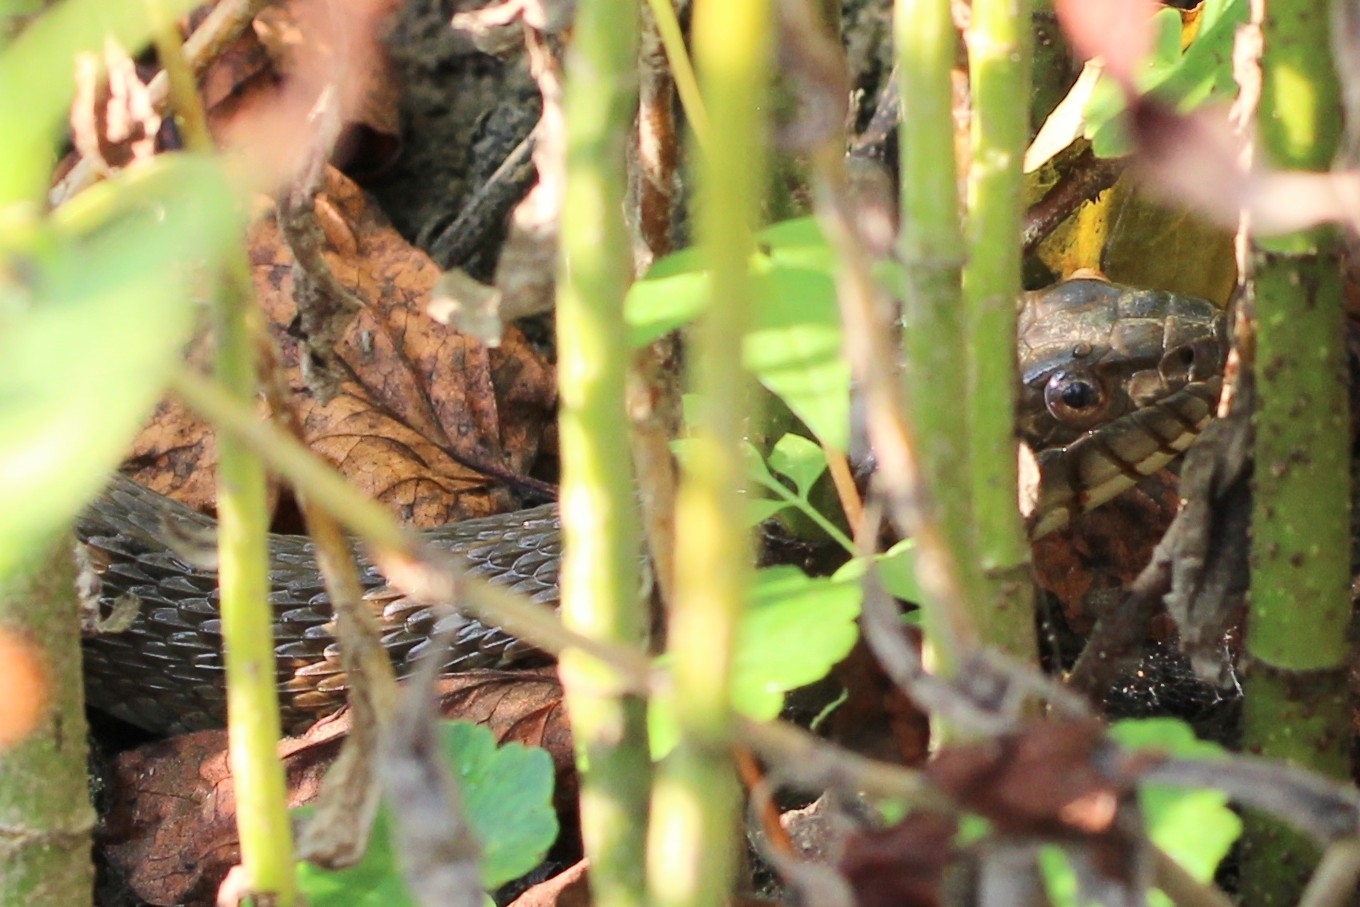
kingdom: Animalia
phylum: Chordata
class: Squamata
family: Colubridae
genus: Nerodia
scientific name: Nerodia sipedon
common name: Northern water snake
